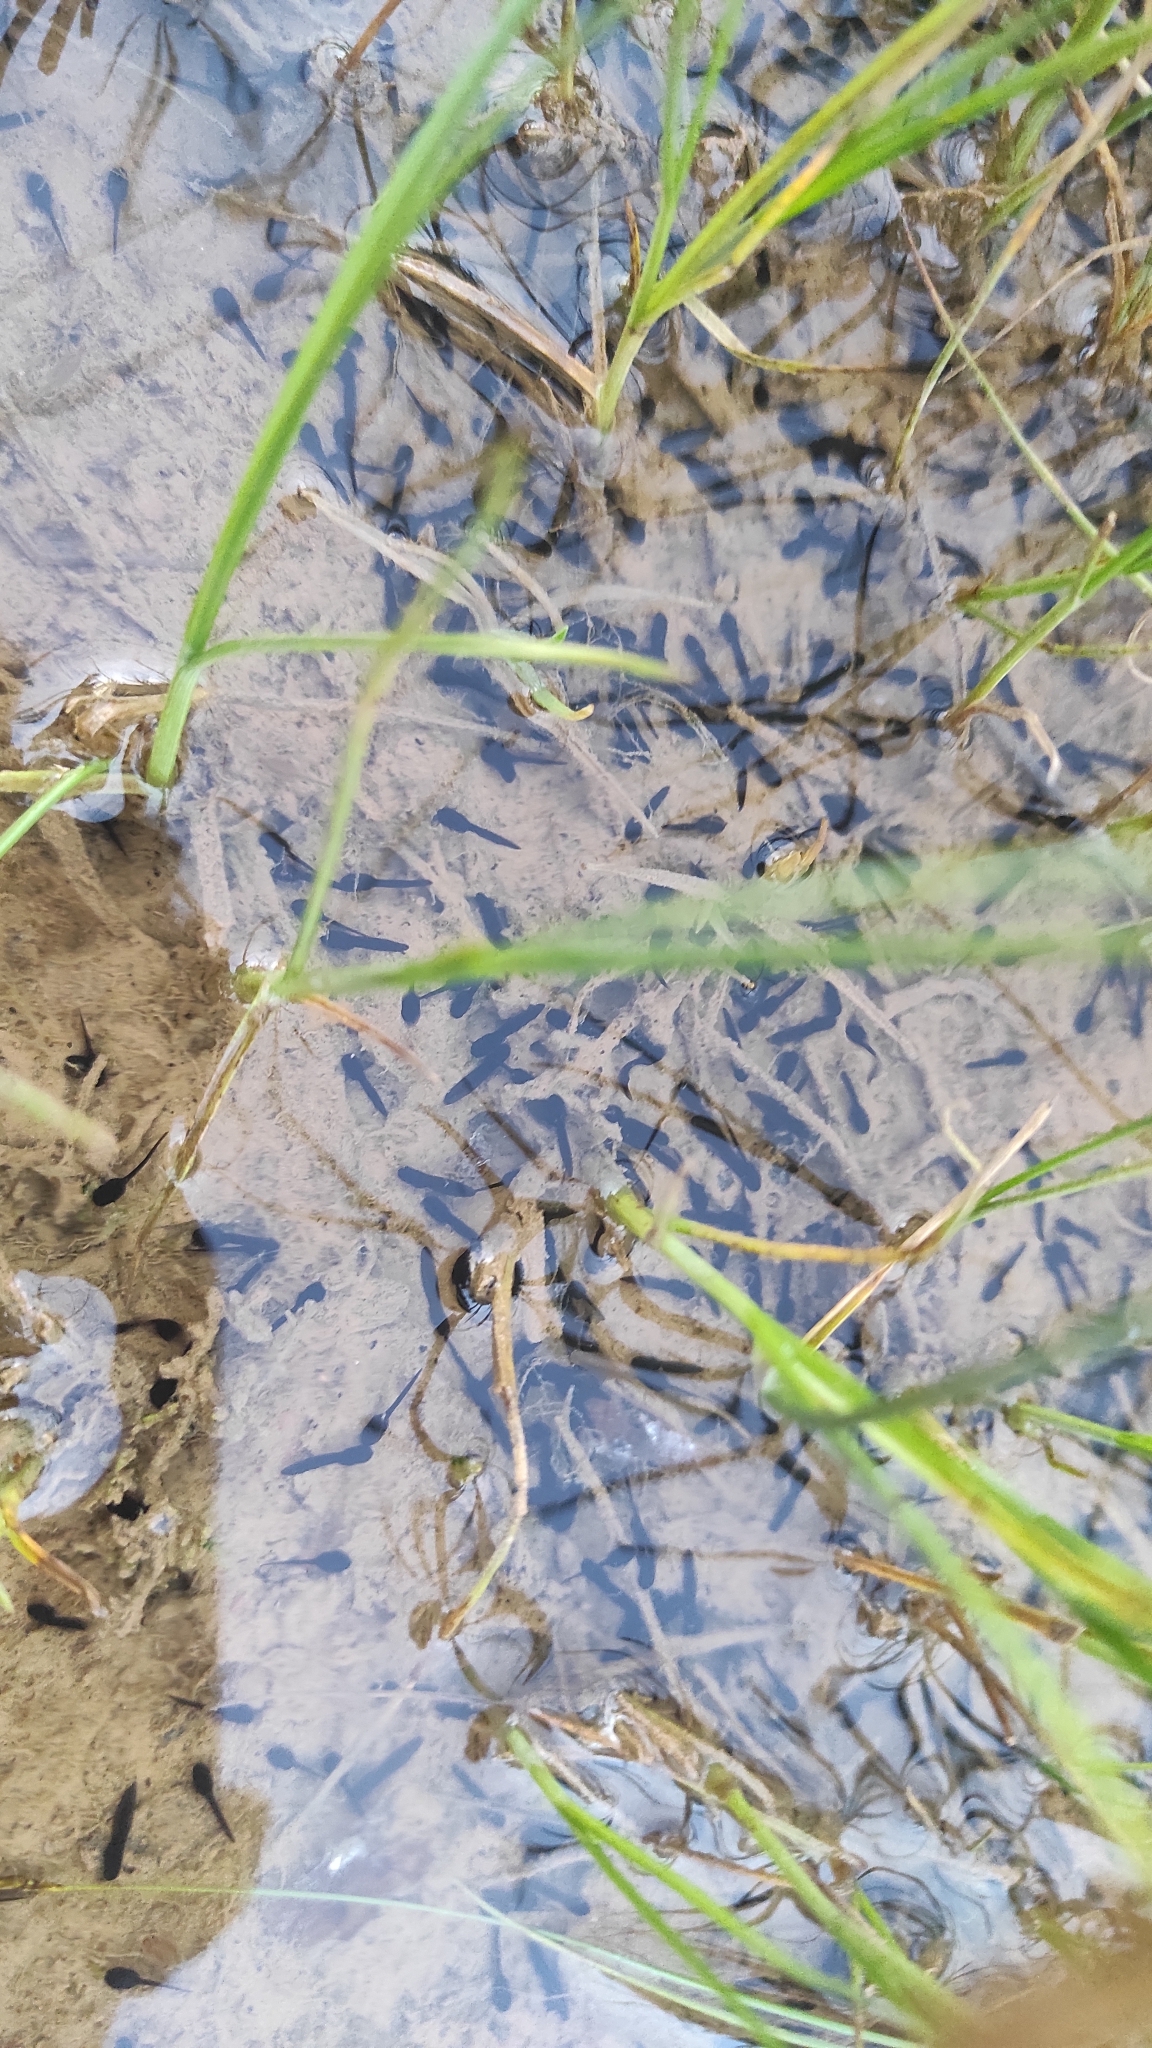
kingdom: Animalia
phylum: Chordata
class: Amphibia
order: Anura
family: Bufonidae
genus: Epidalea
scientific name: Epidalea calamita
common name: Natterjack toad
